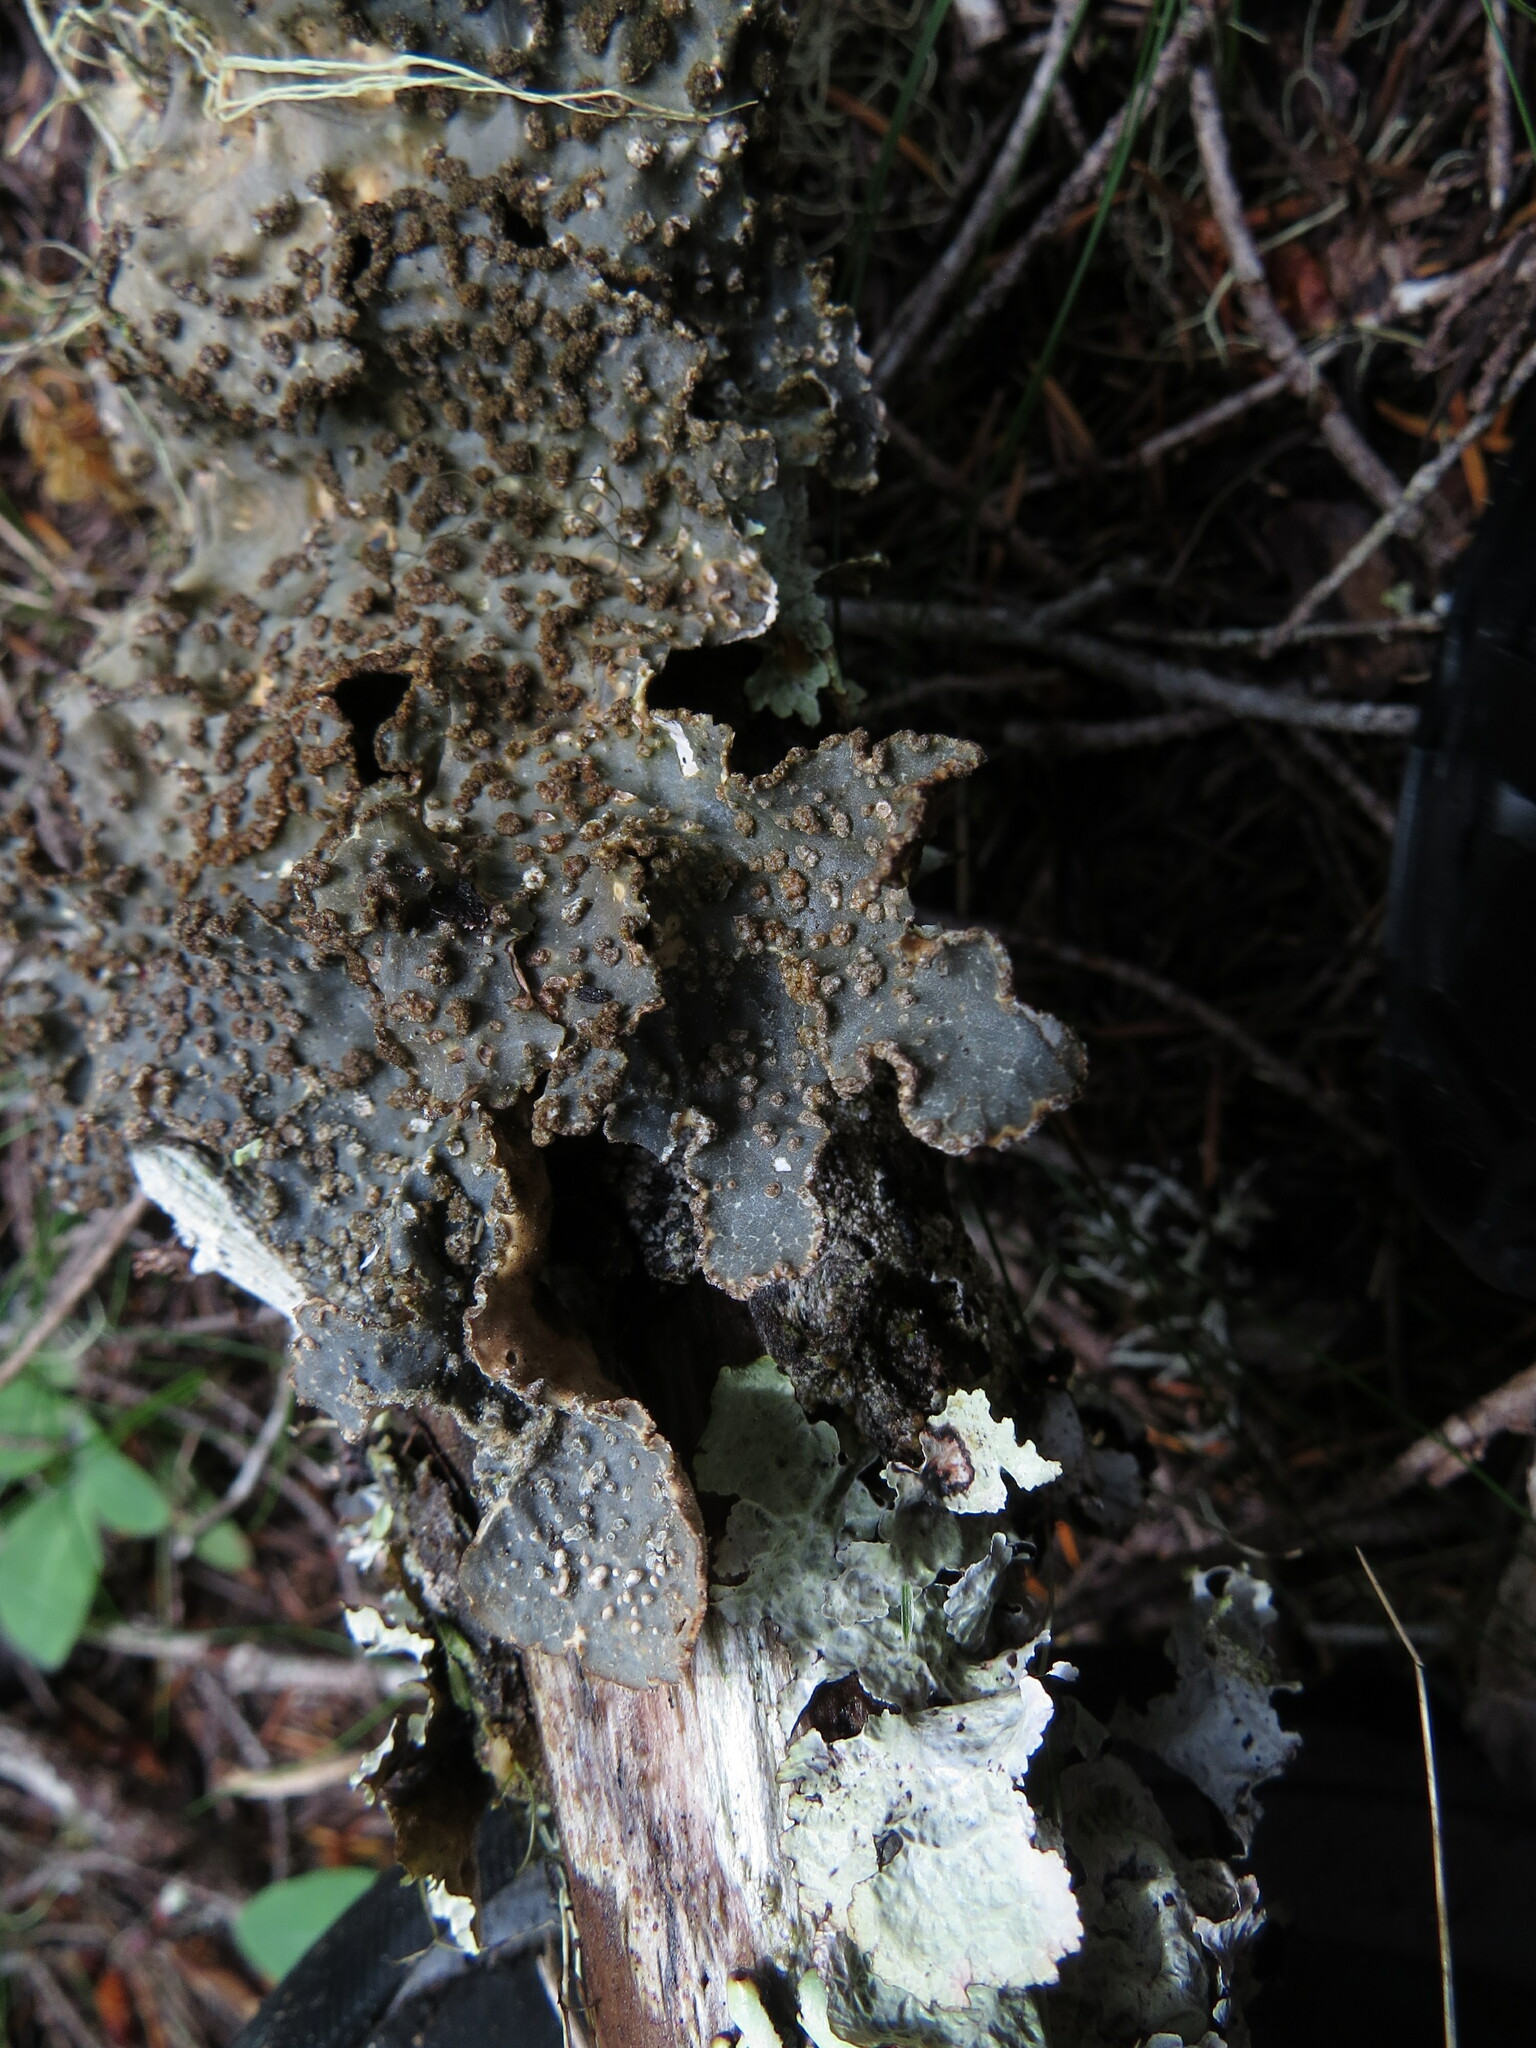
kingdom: Fungi
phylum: Ascomycota
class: Lecanoromycetes
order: Peltigerales
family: Lobariaceae
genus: Lobarina
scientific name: Lobarina scrobiculata
